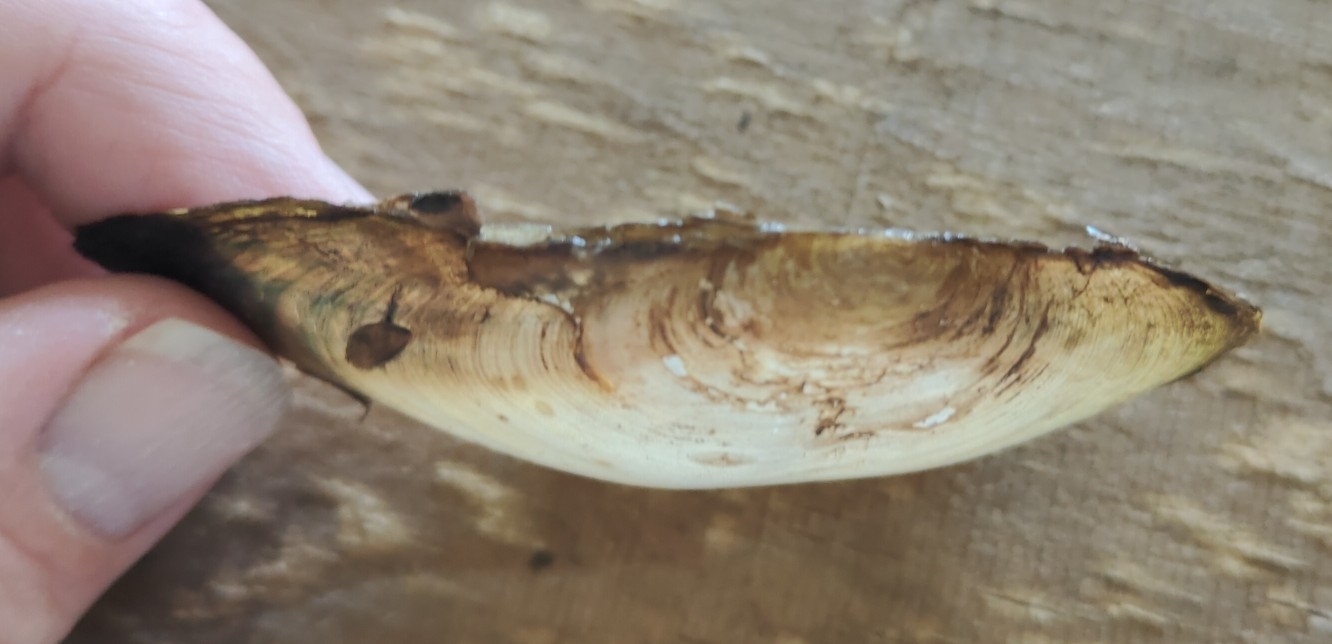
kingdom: Animalia
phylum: Mollusca
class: Bivalvia
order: Unionida
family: Unionidae
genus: Utterbackia
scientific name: Utterbackia imbecillis
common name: Paper pondshell
